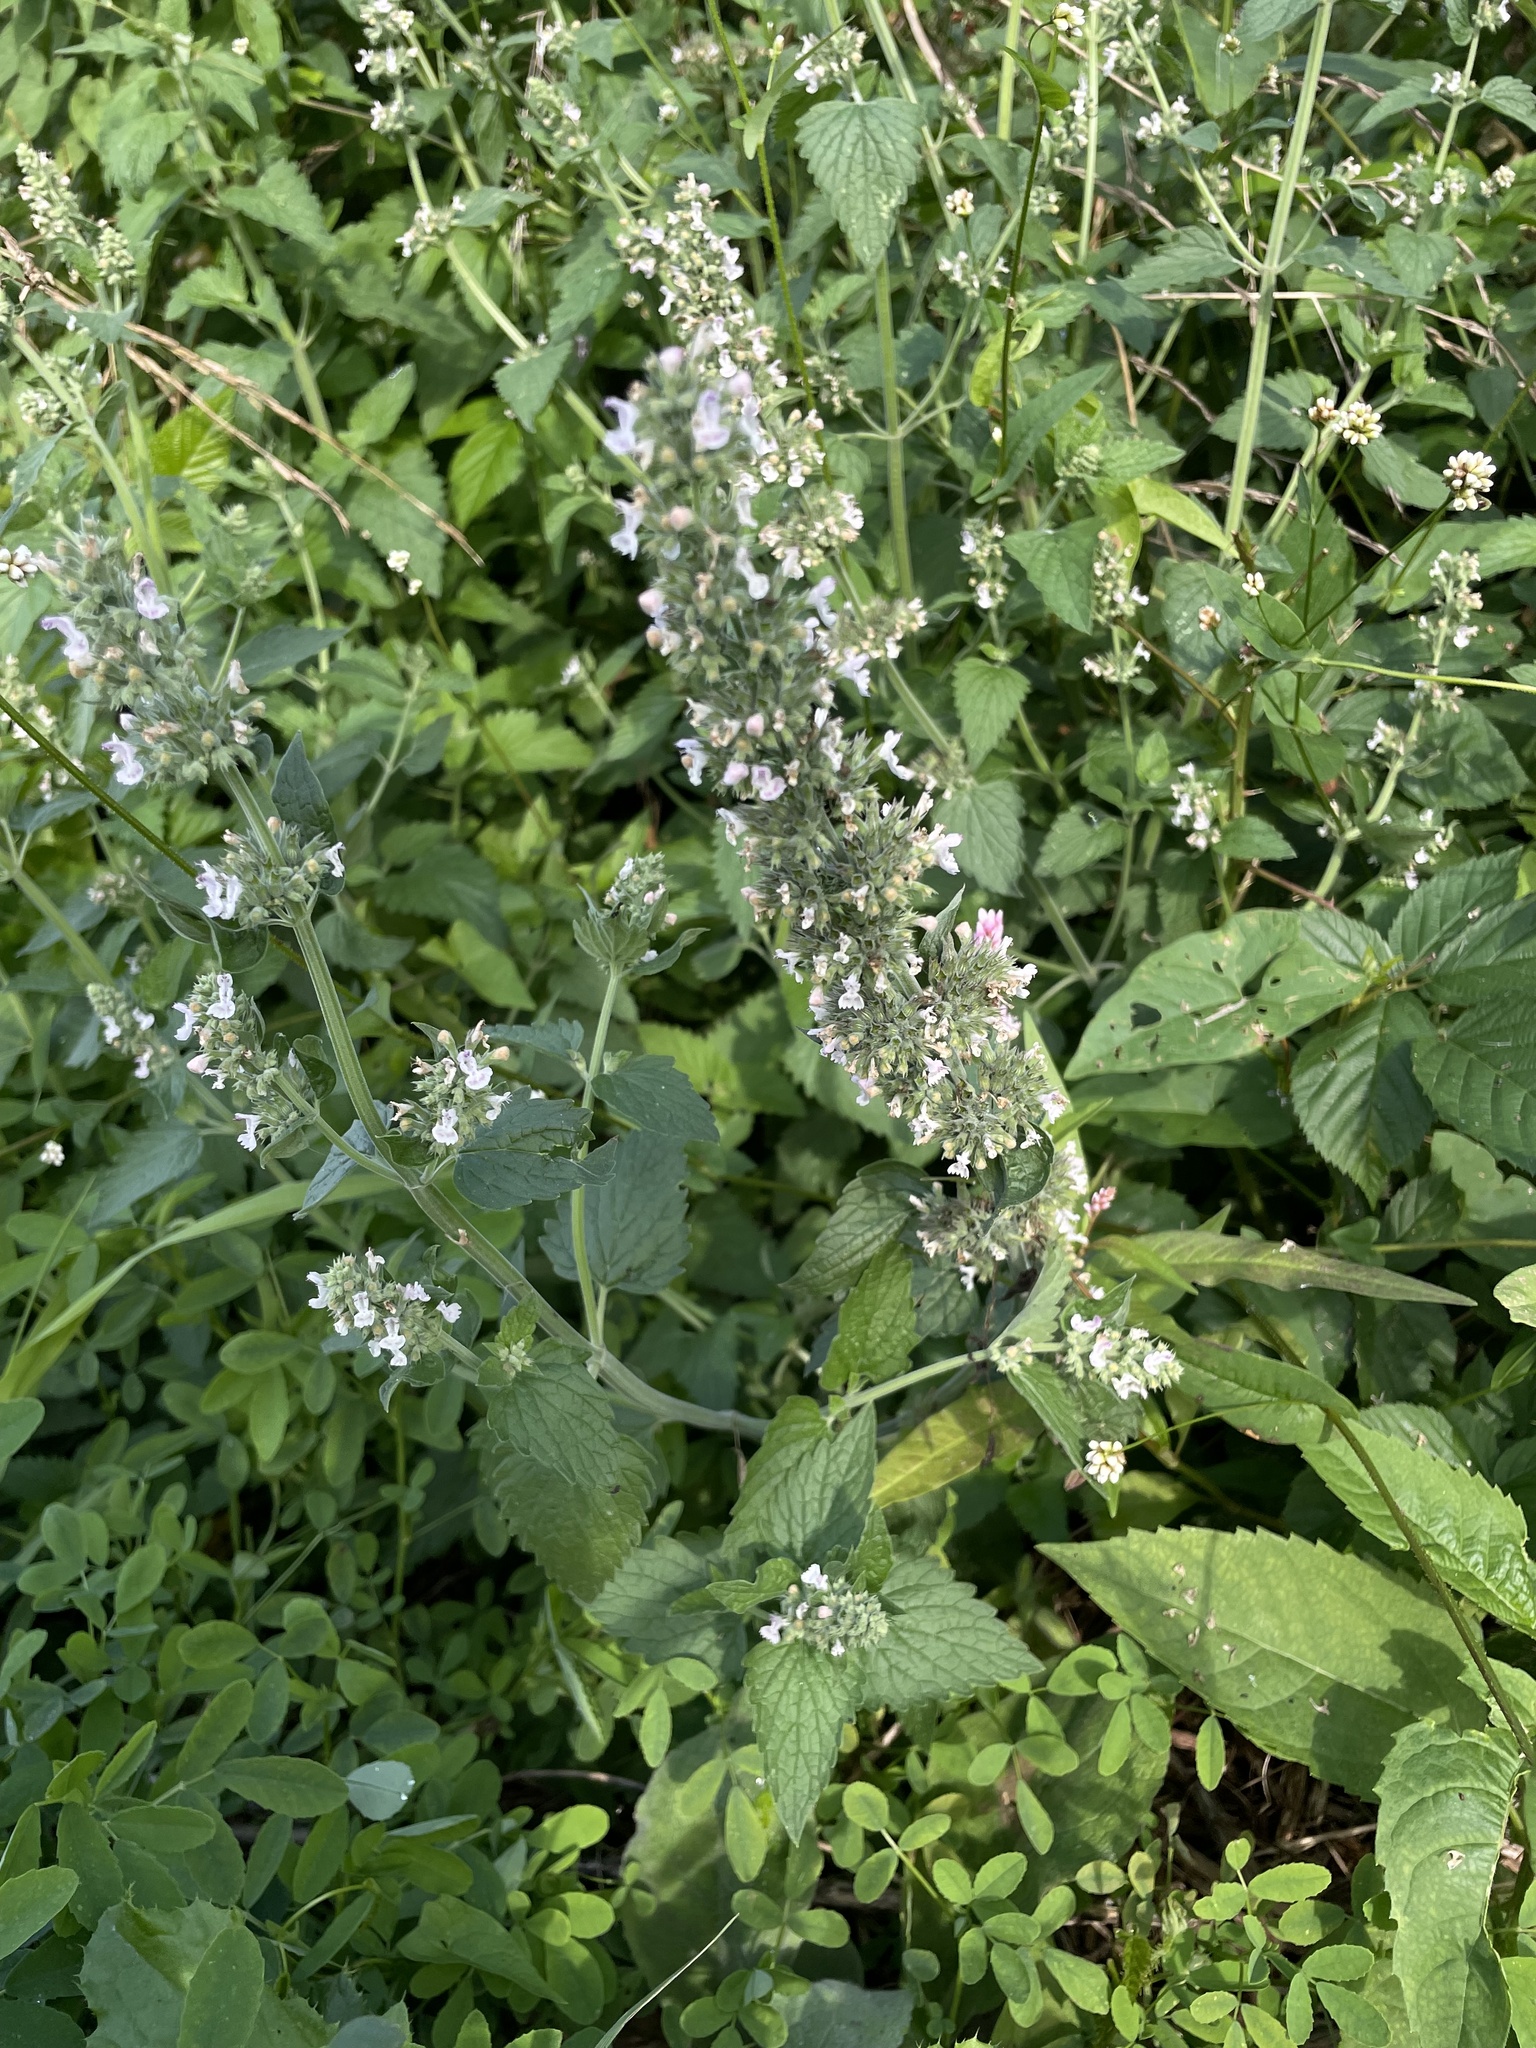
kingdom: Plantae
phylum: Tracheophyta
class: Magnoliopsida
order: Lamiales
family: Lamiaceae
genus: Nepeta
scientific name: Nepeta cataria
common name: Catnip
